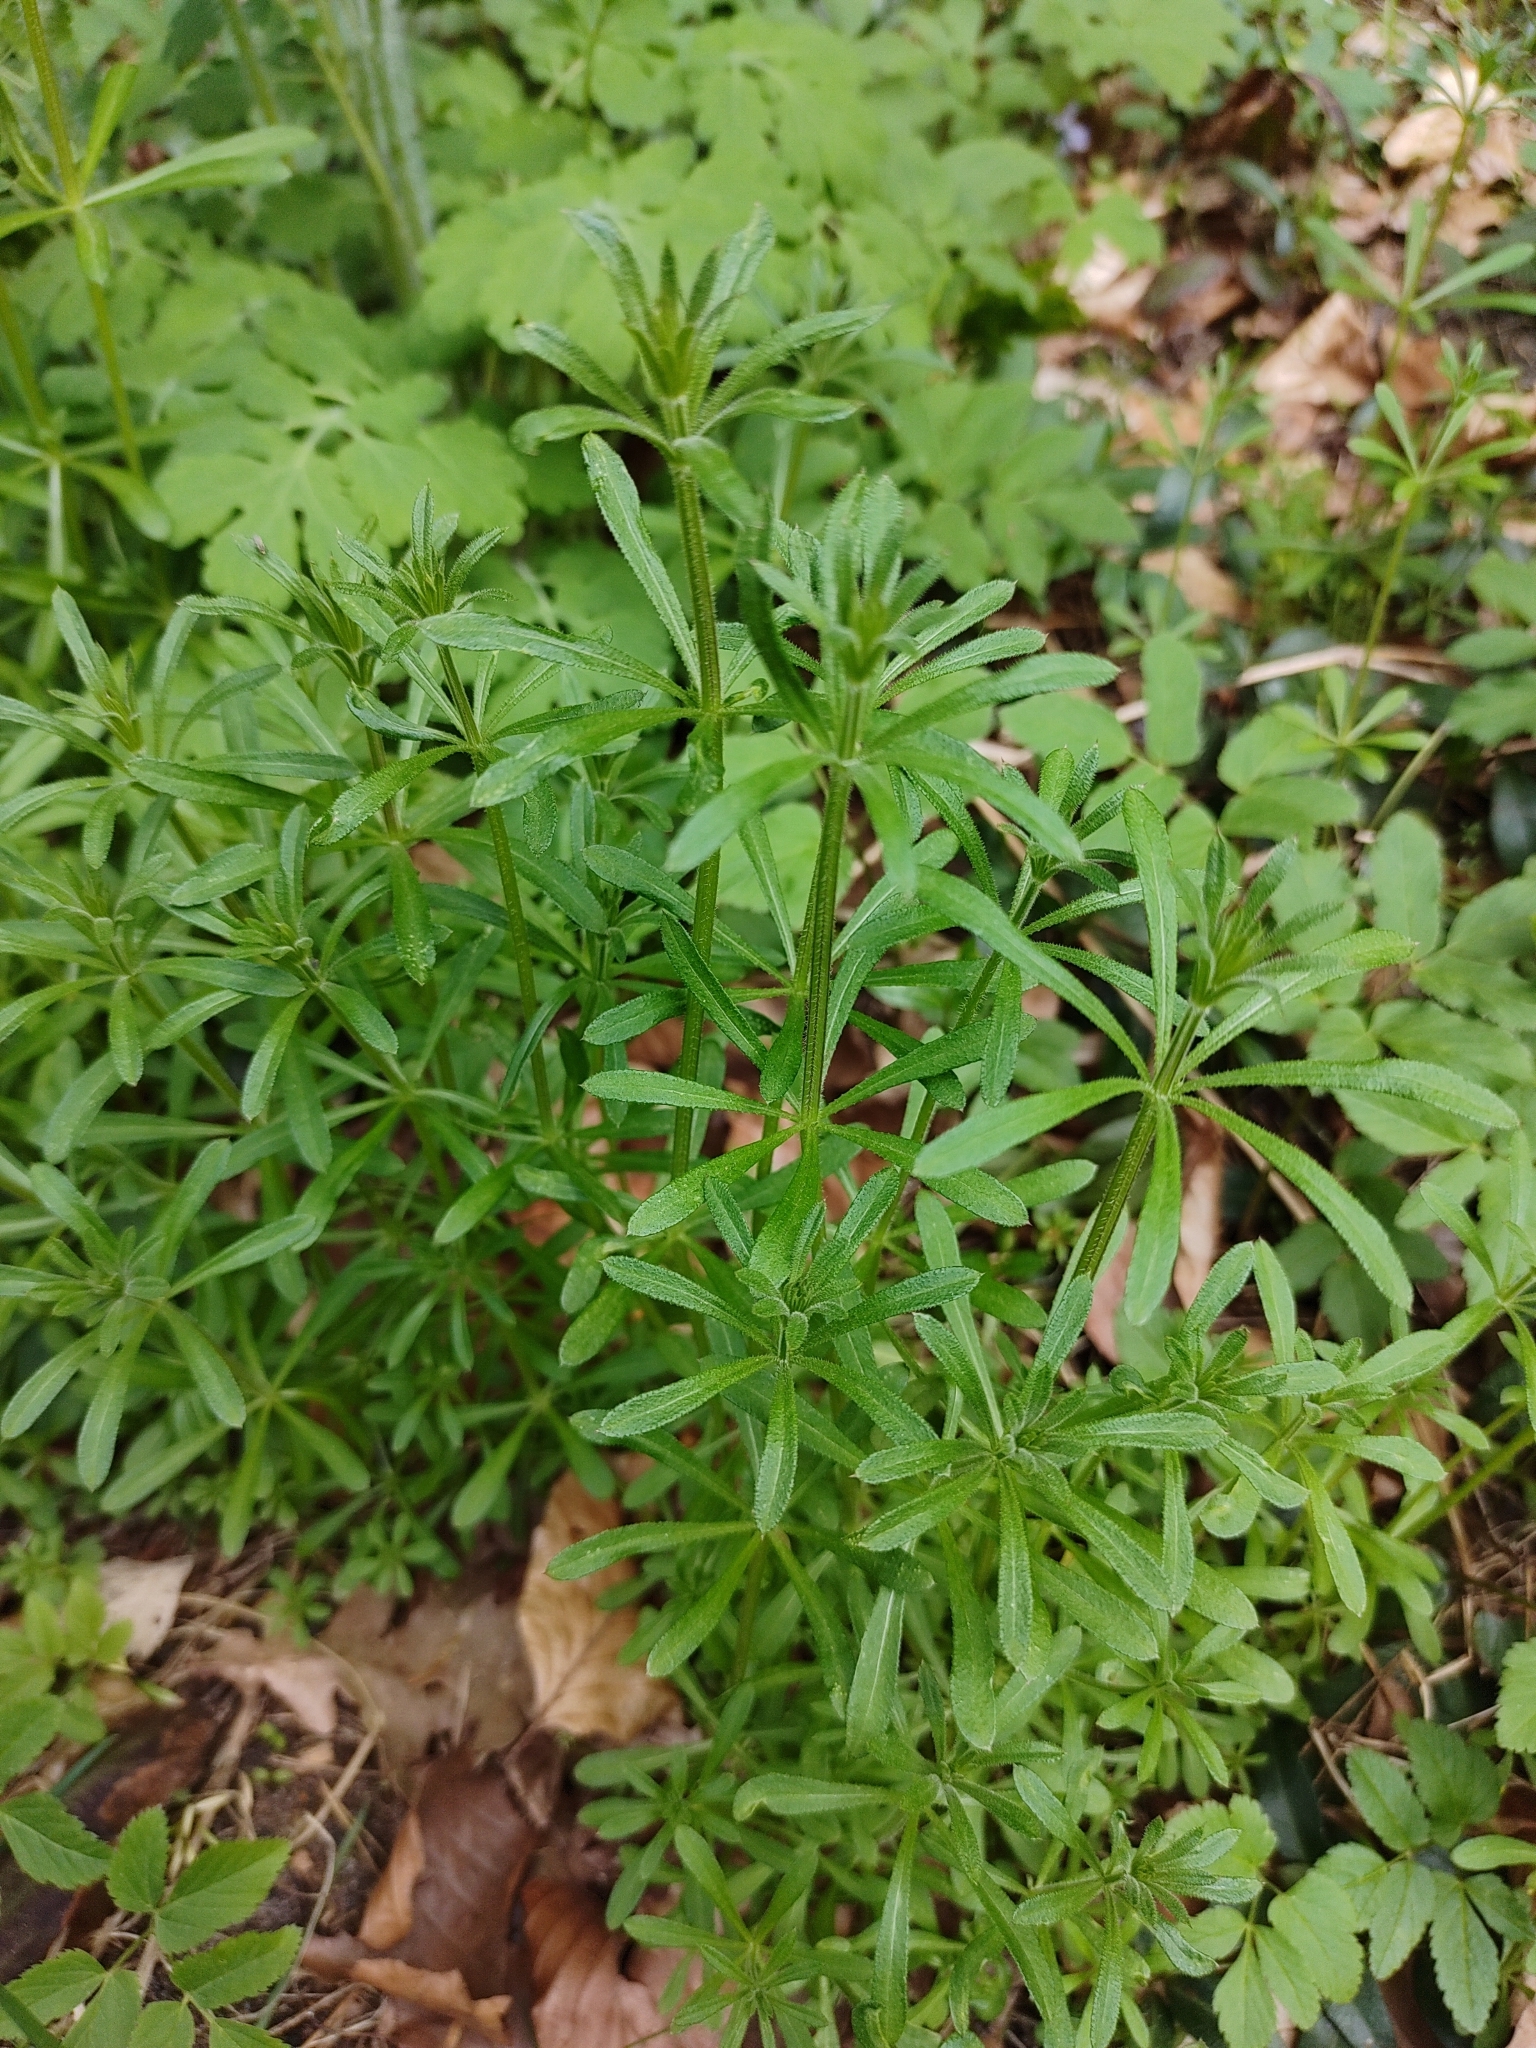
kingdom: Plantae
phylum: Tracheophyta
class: Magnoliopsida
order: Gentianales
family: Rubiaceae
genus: Galium
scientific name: Galium aparine
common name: Cleavers
